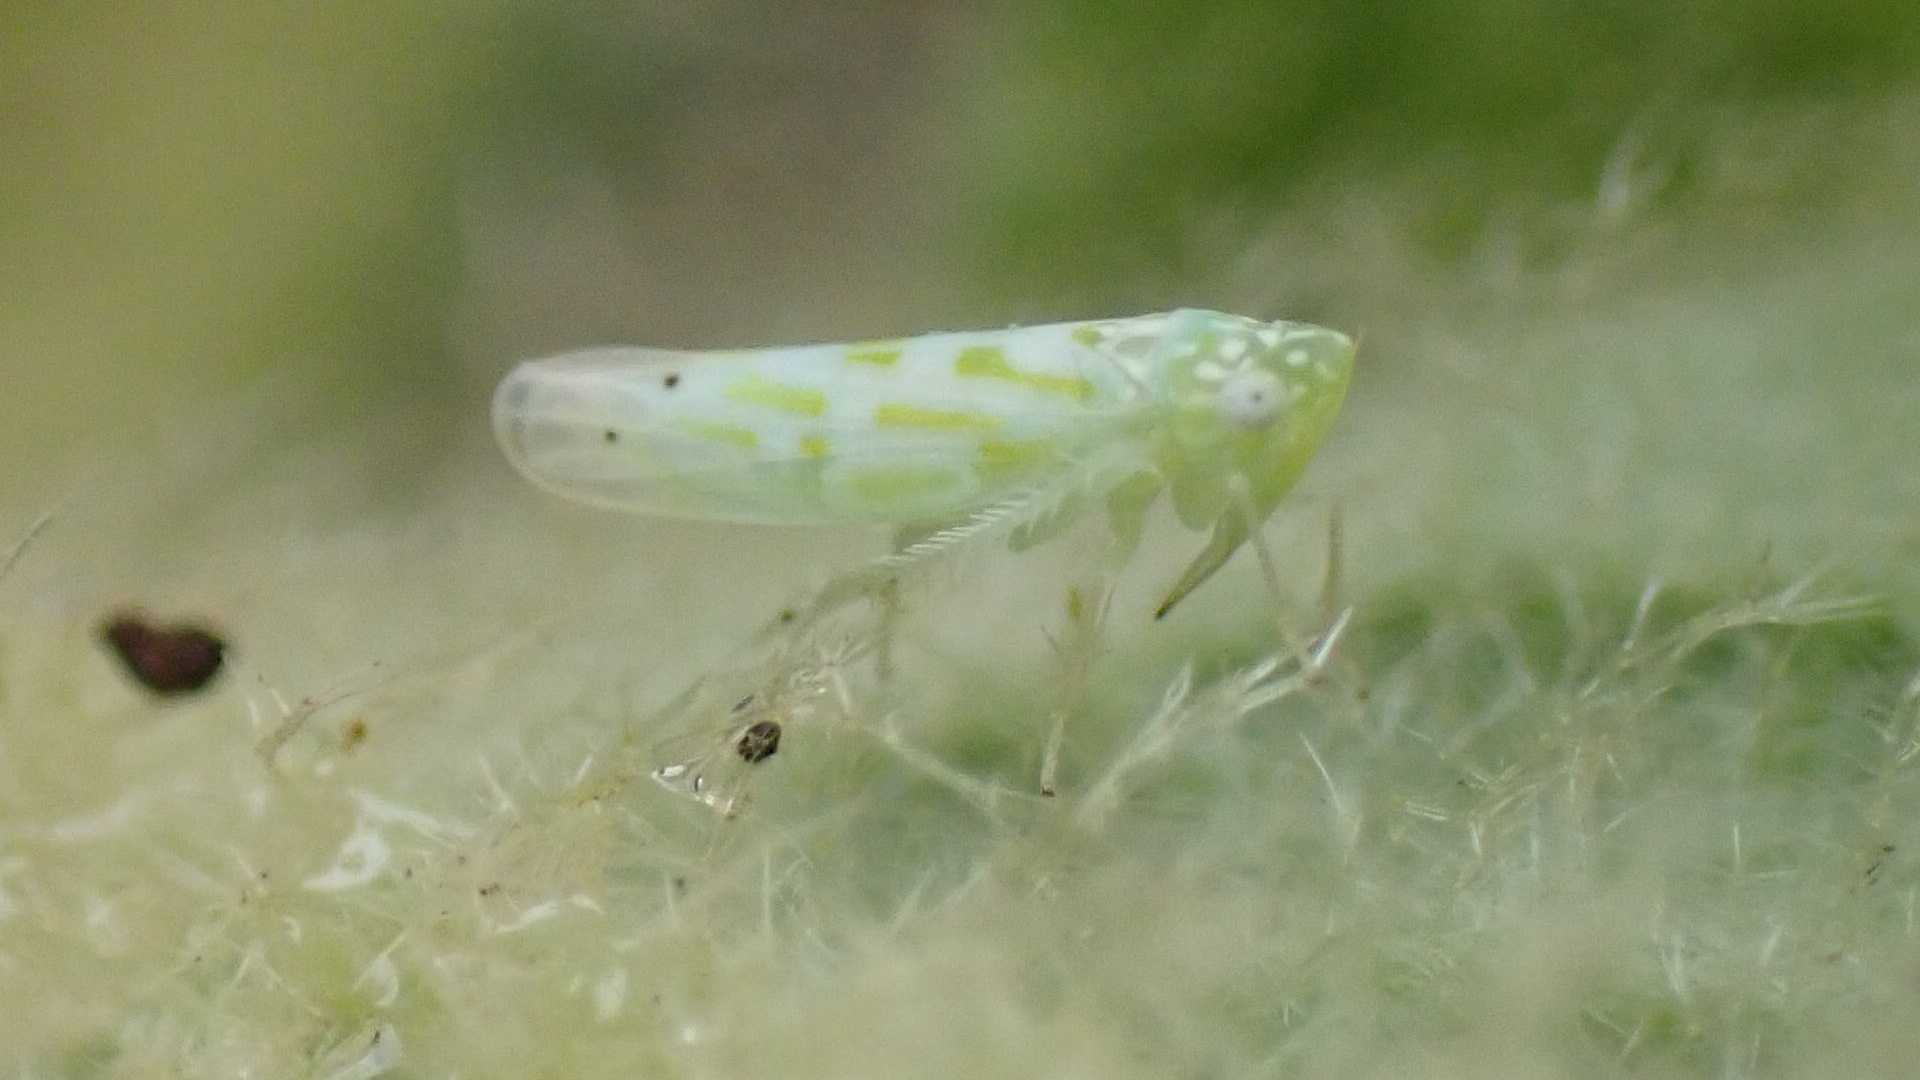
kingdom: Animalia
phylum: Arthropoda
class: Insecta
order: Hemiptera
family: Cicadellidae
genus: Micantulina
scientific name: Micantulina stigmatipennis
